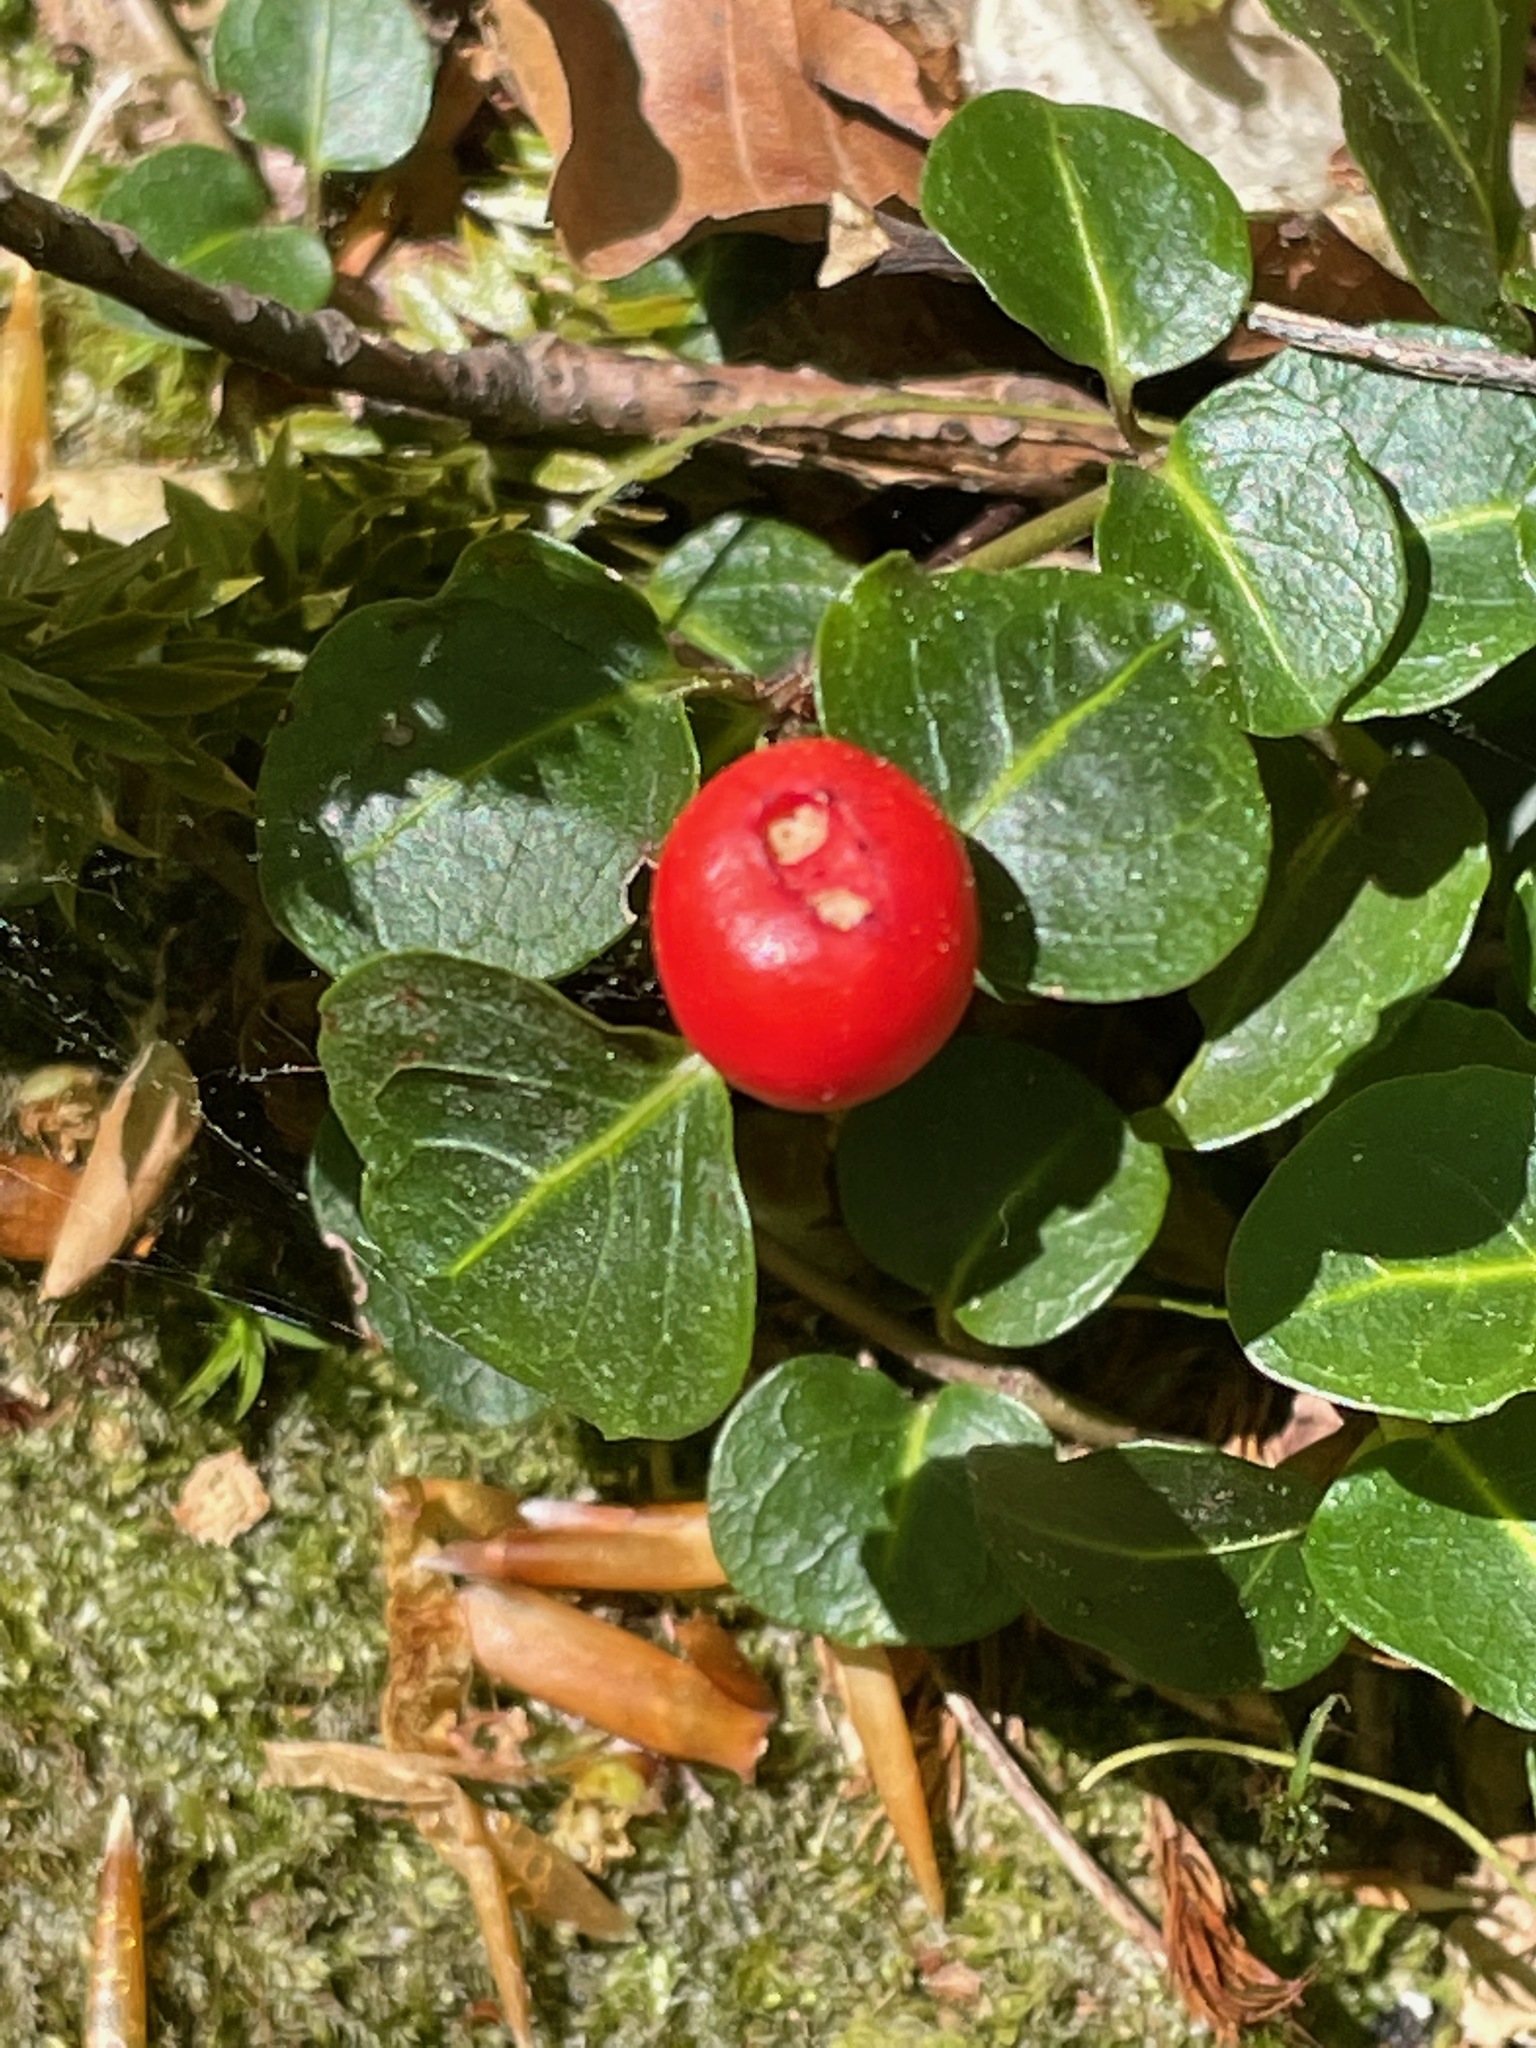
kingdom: Plantae
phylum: Tracheophyta
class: Magnoliopsida
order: Gentianales
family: Rubiaceae
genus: Mitchella
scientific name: Mitchella repens
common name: Partridge-berry
